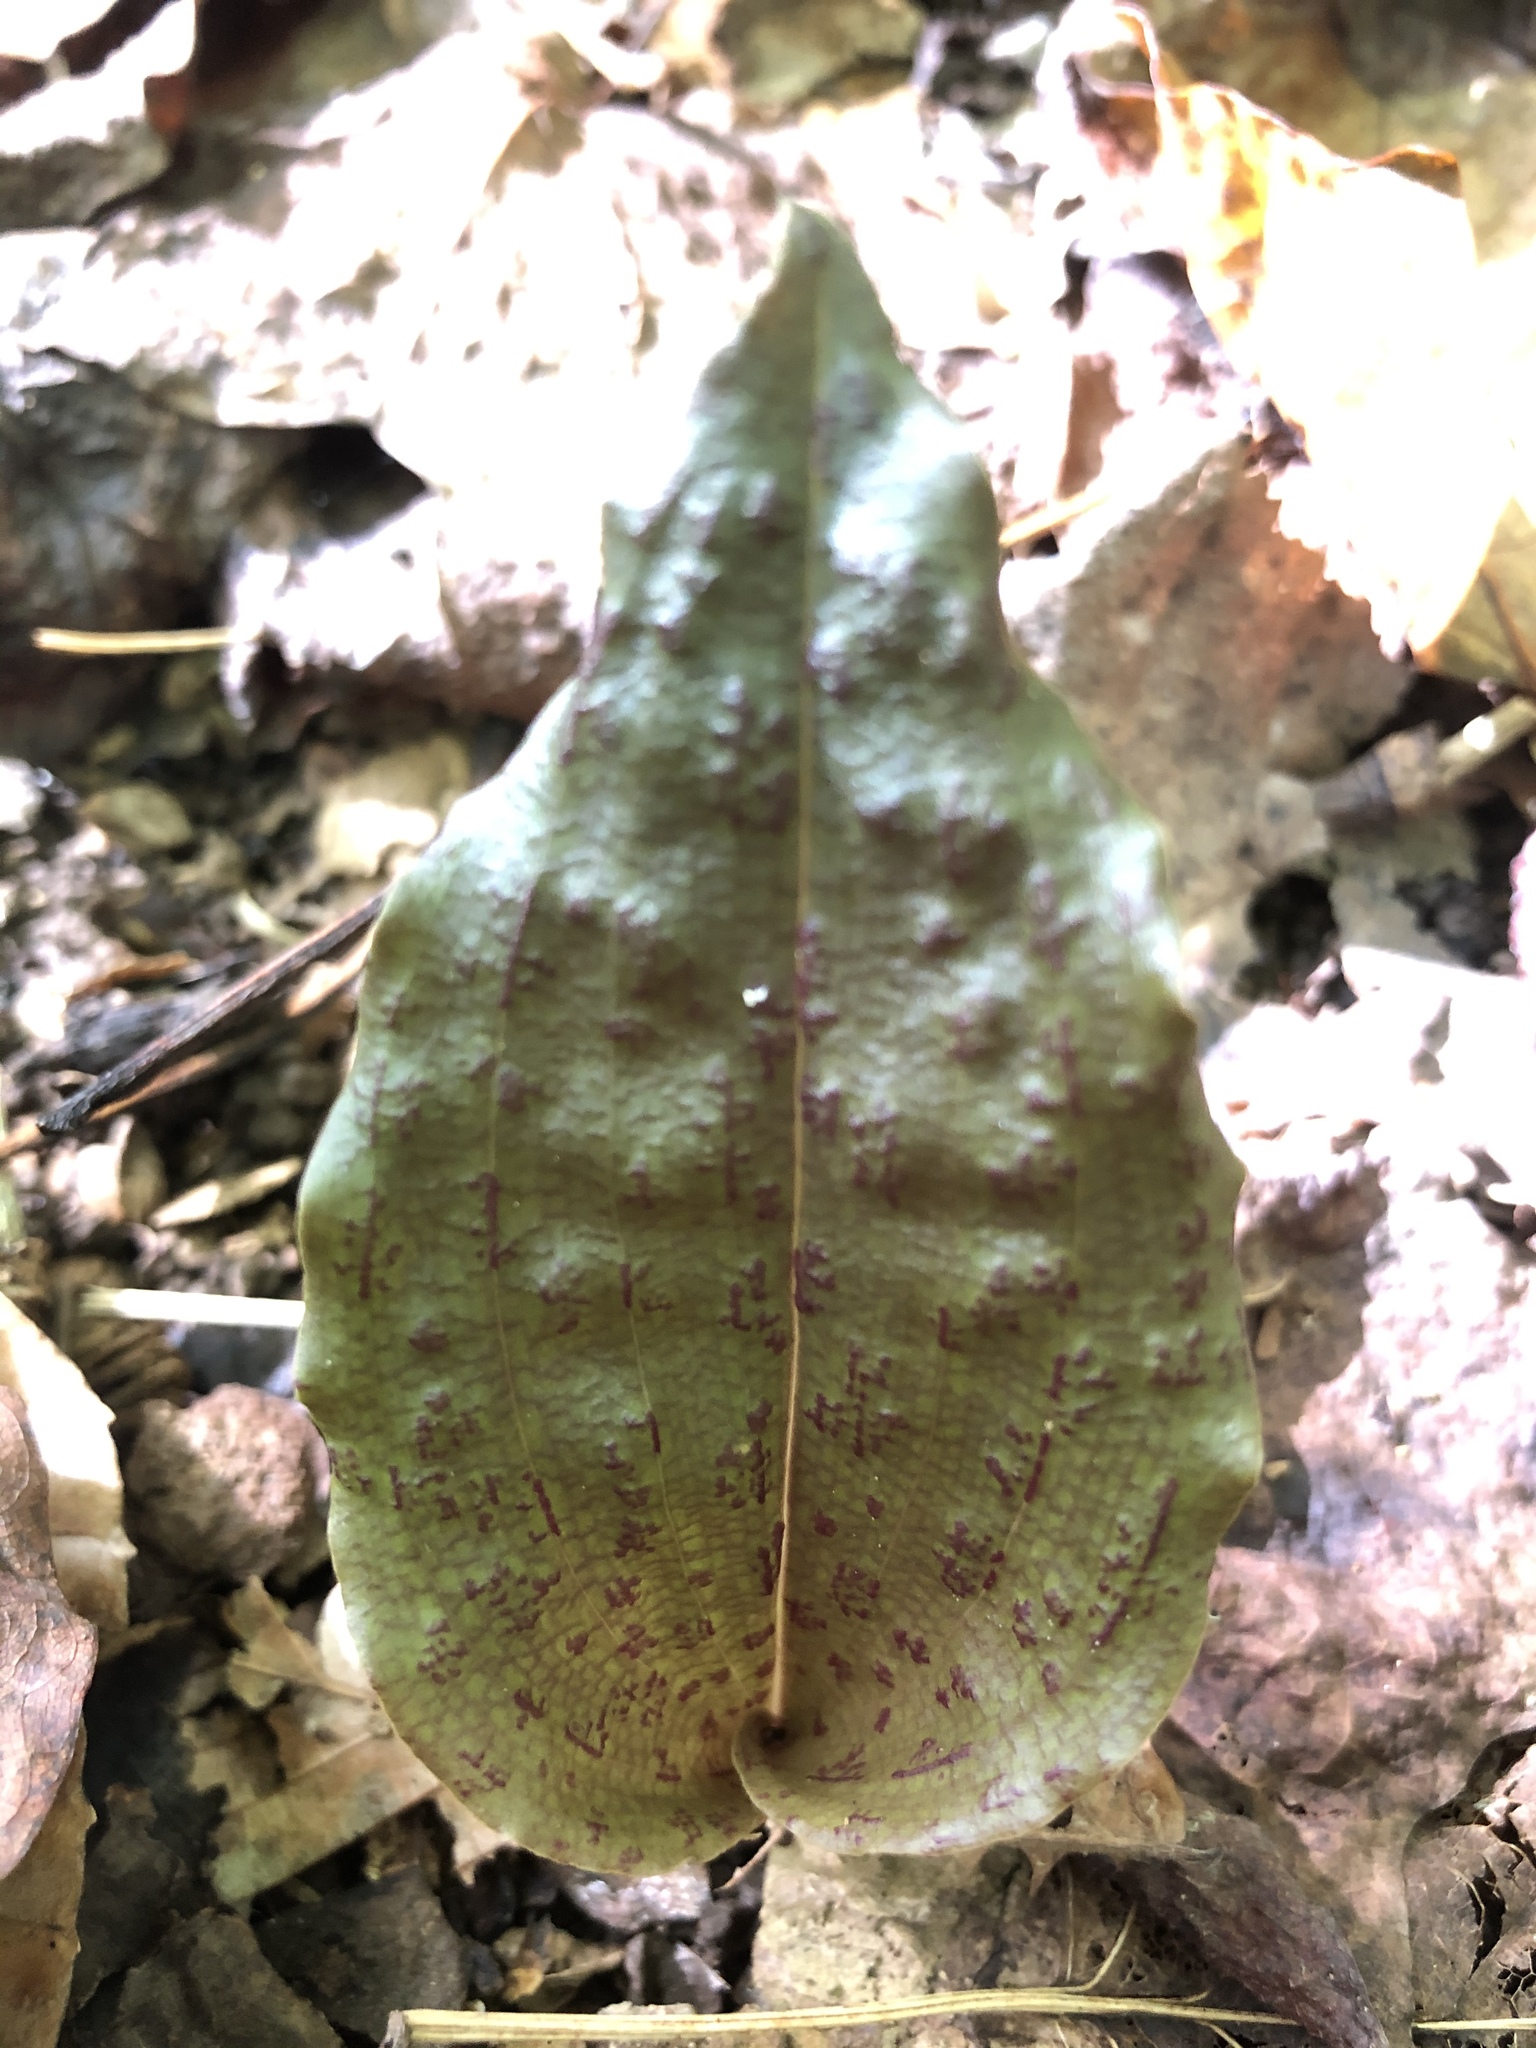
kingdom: Plantae
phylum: Tracheophyta
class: Liliopsida
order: Asparagales
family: Orchidaceae
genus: Tipularia
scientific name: Tipularia discolor
